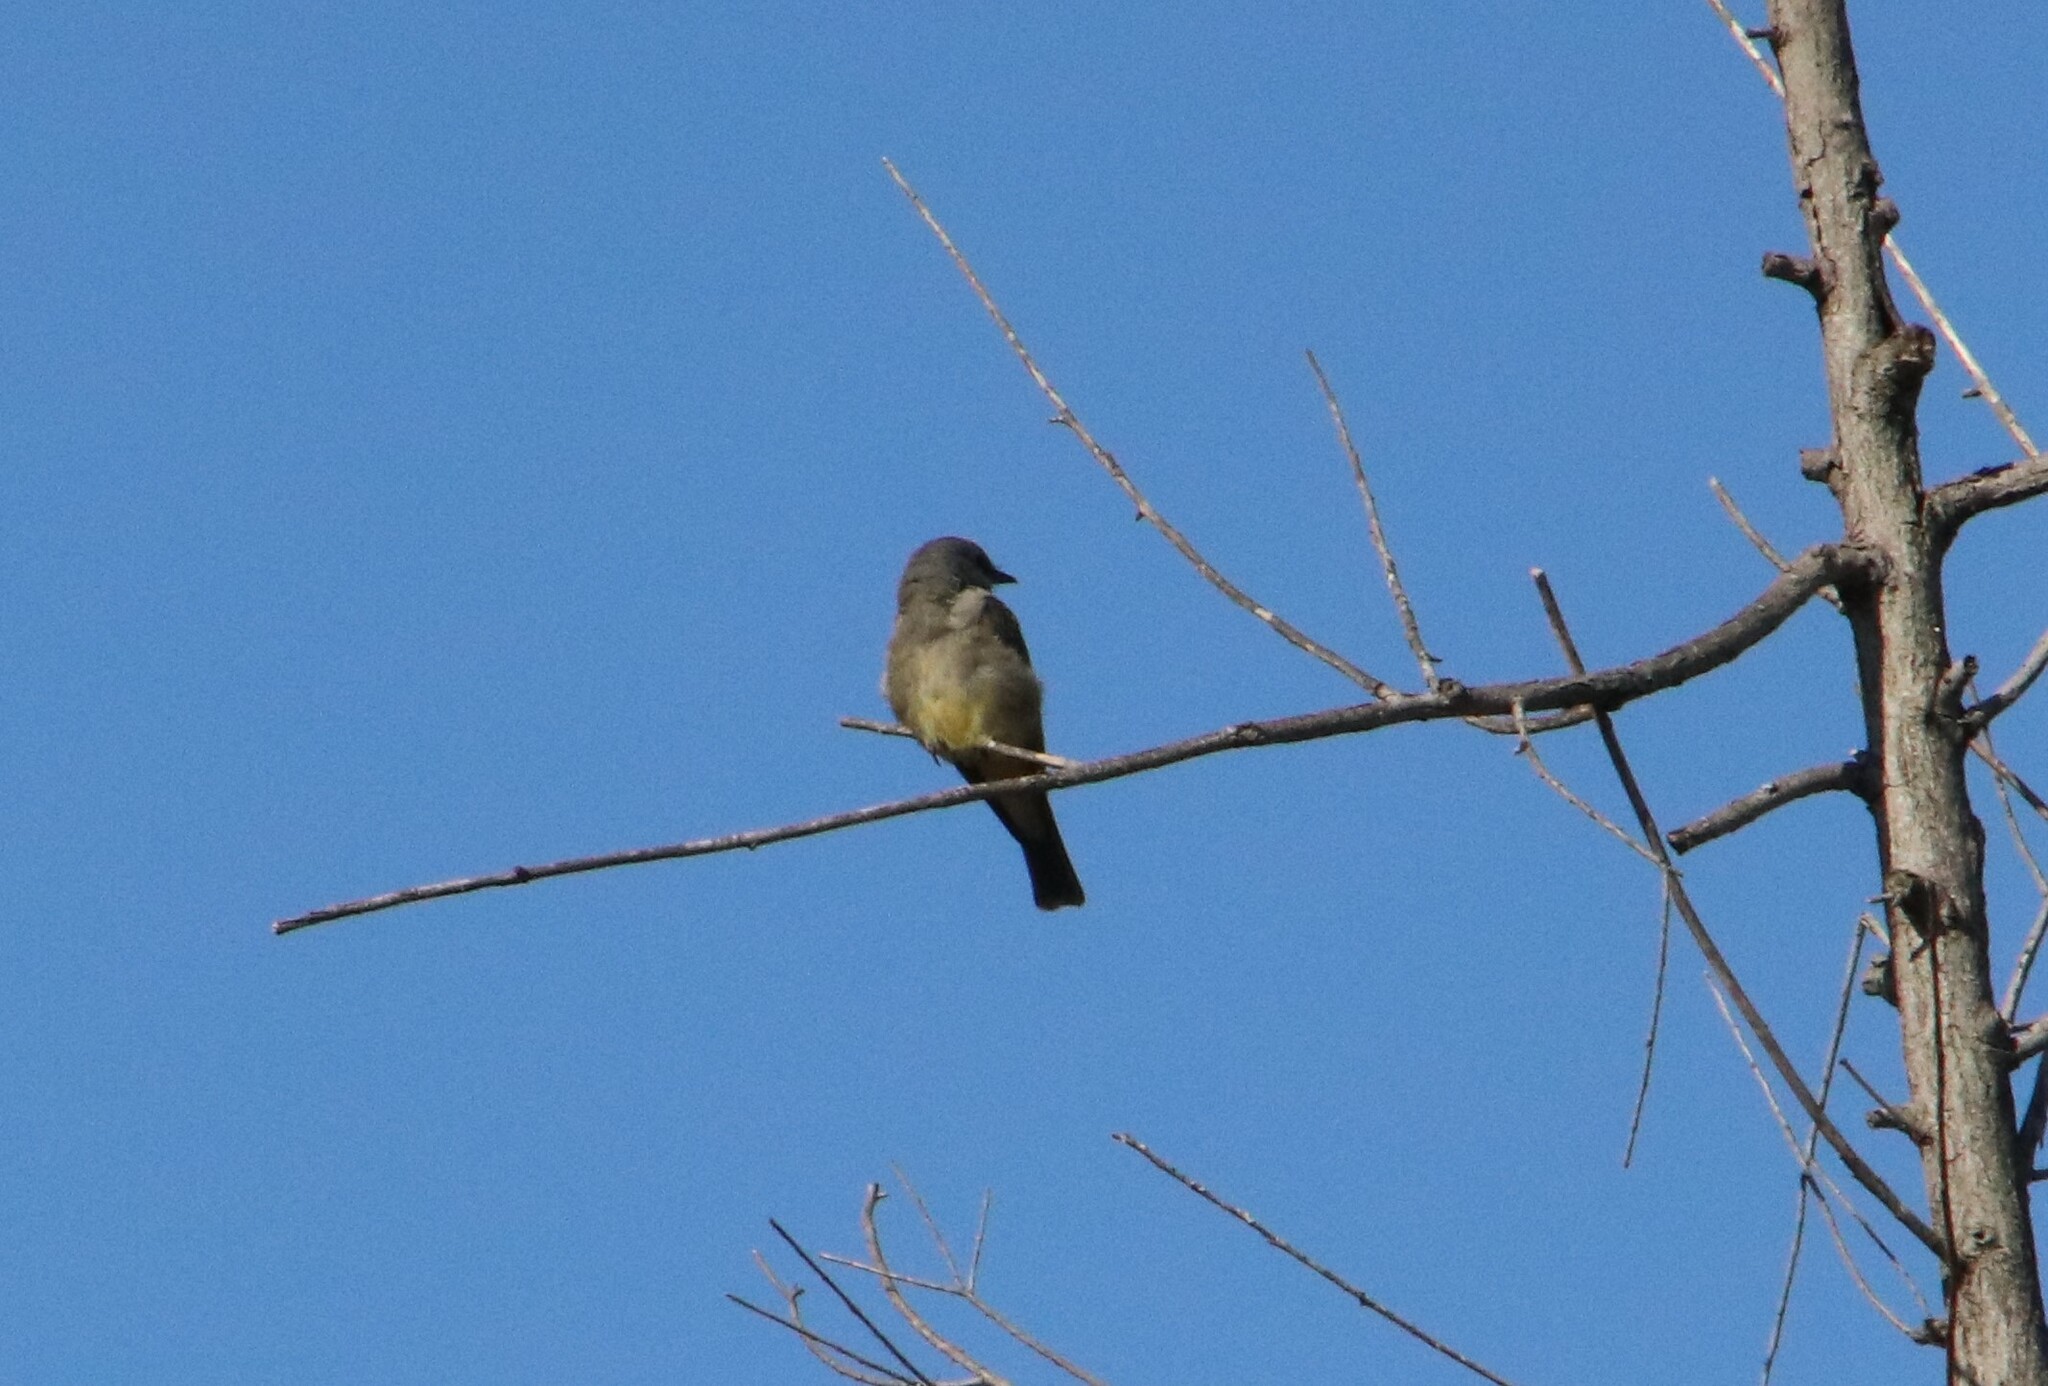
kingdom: Animalia
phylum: Chordata
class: Aves
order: Passeriformes
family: Tyrannidae
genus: Tyrannus
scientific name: Tyrannus vociferans
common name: Cassin's kingbird
